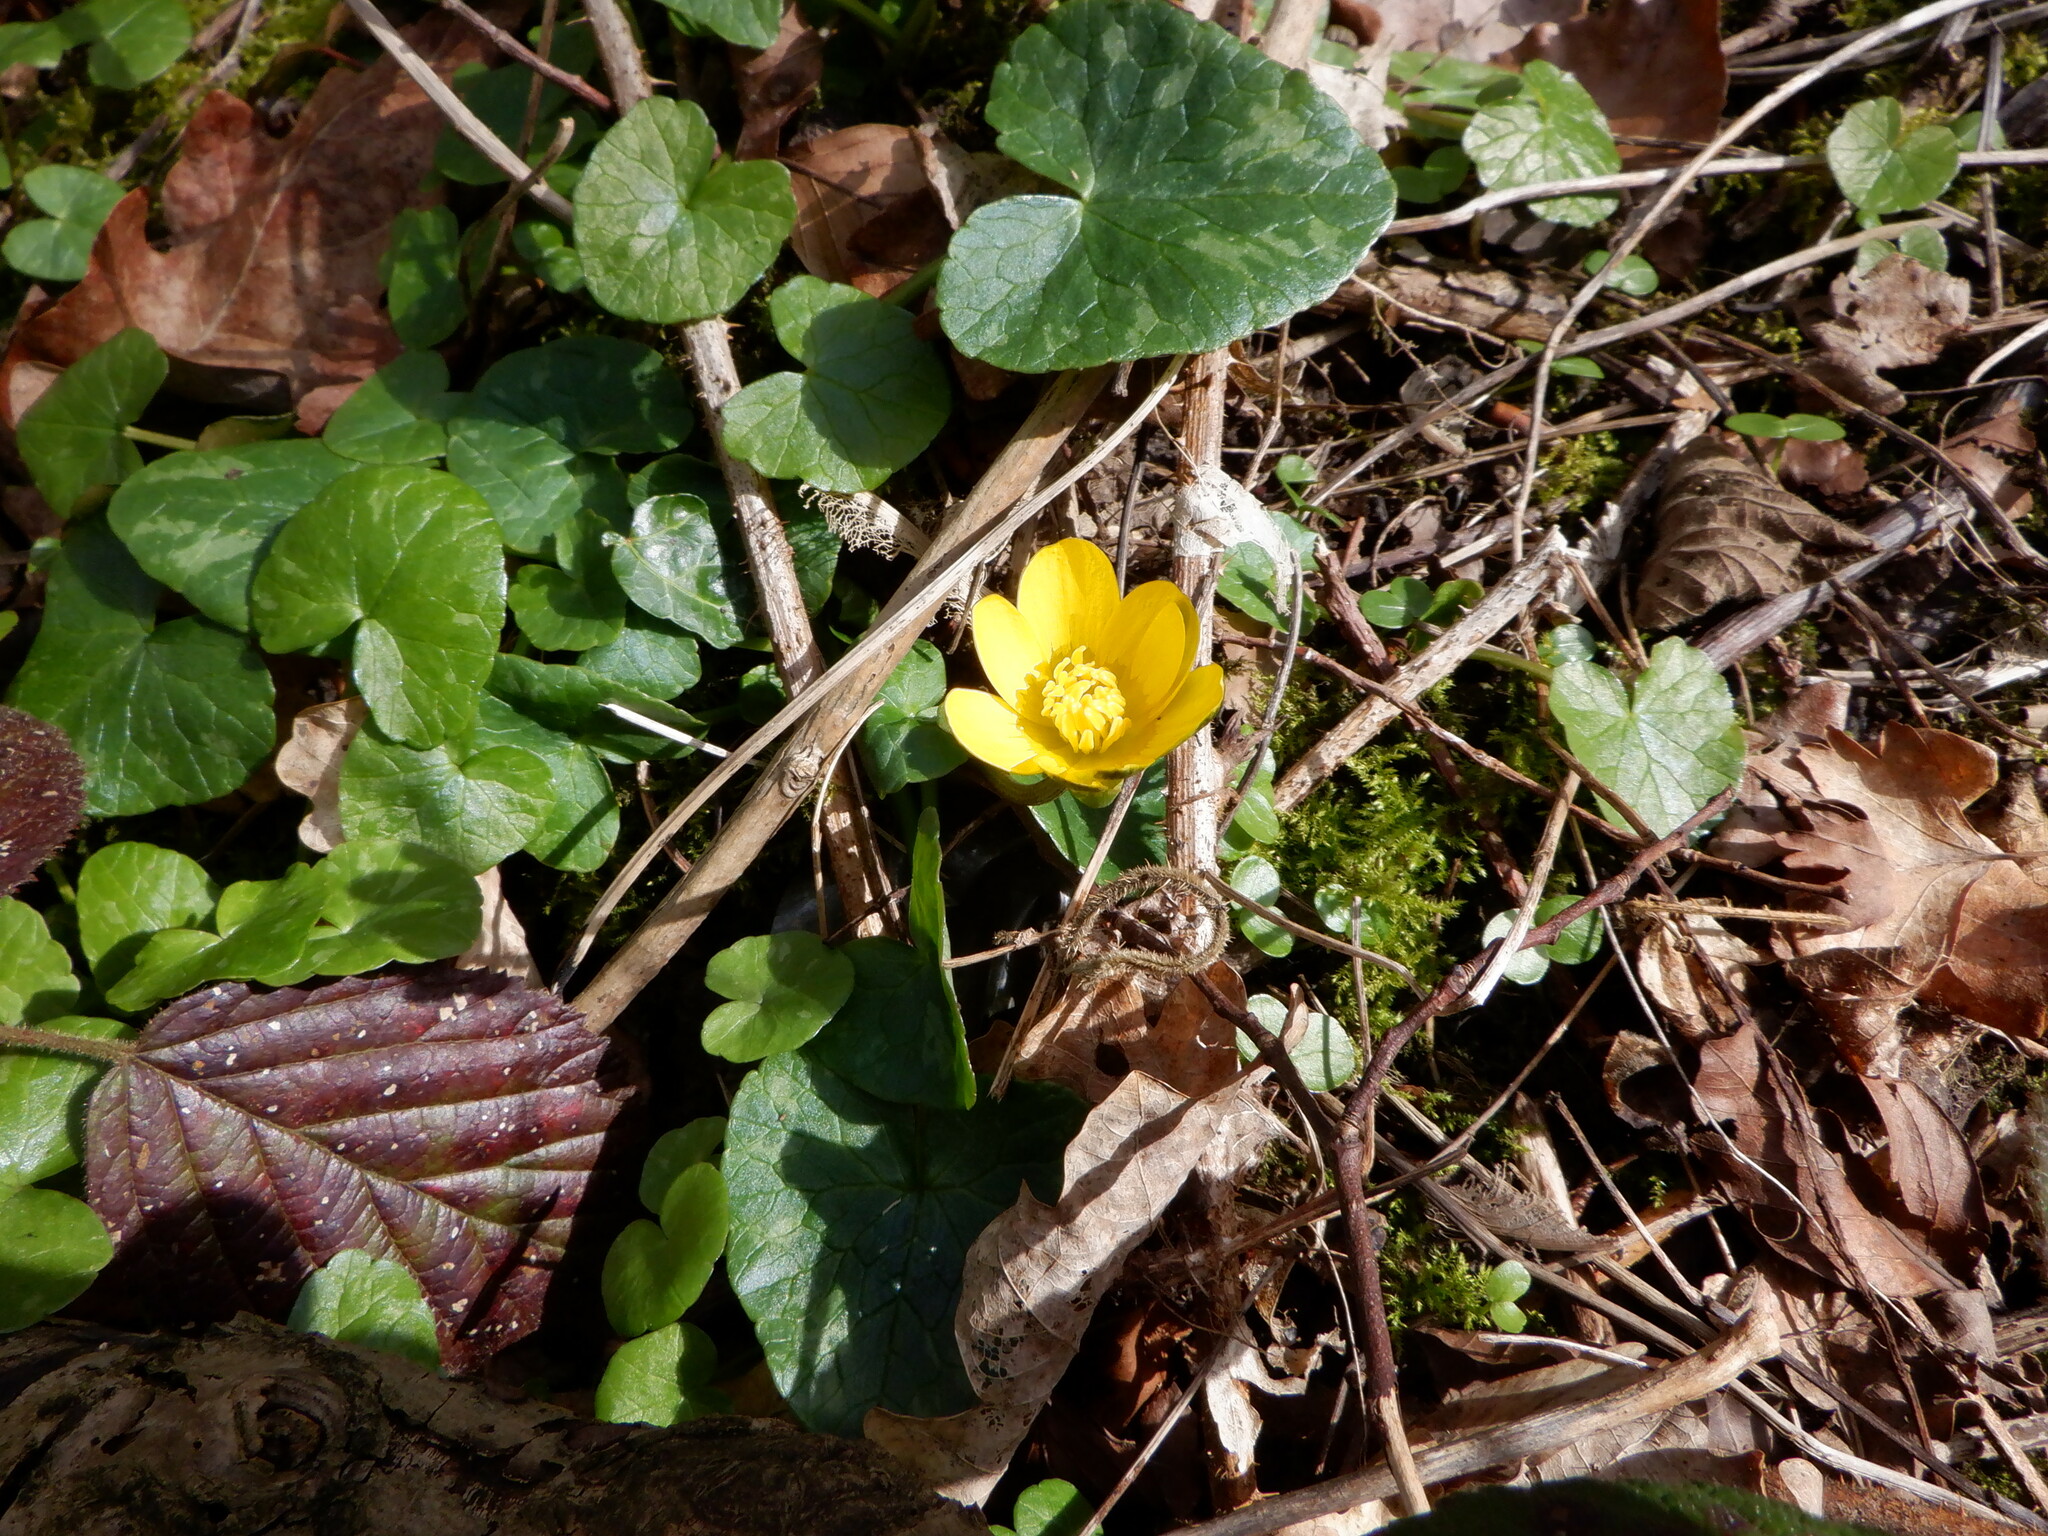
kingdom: Plantae
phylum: Tracheophyta
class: Magnoliopsida
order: Ranunculales
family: Ranunculaceae
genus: Ficaria
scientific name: Ficaria verna
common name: Lesser celandine
